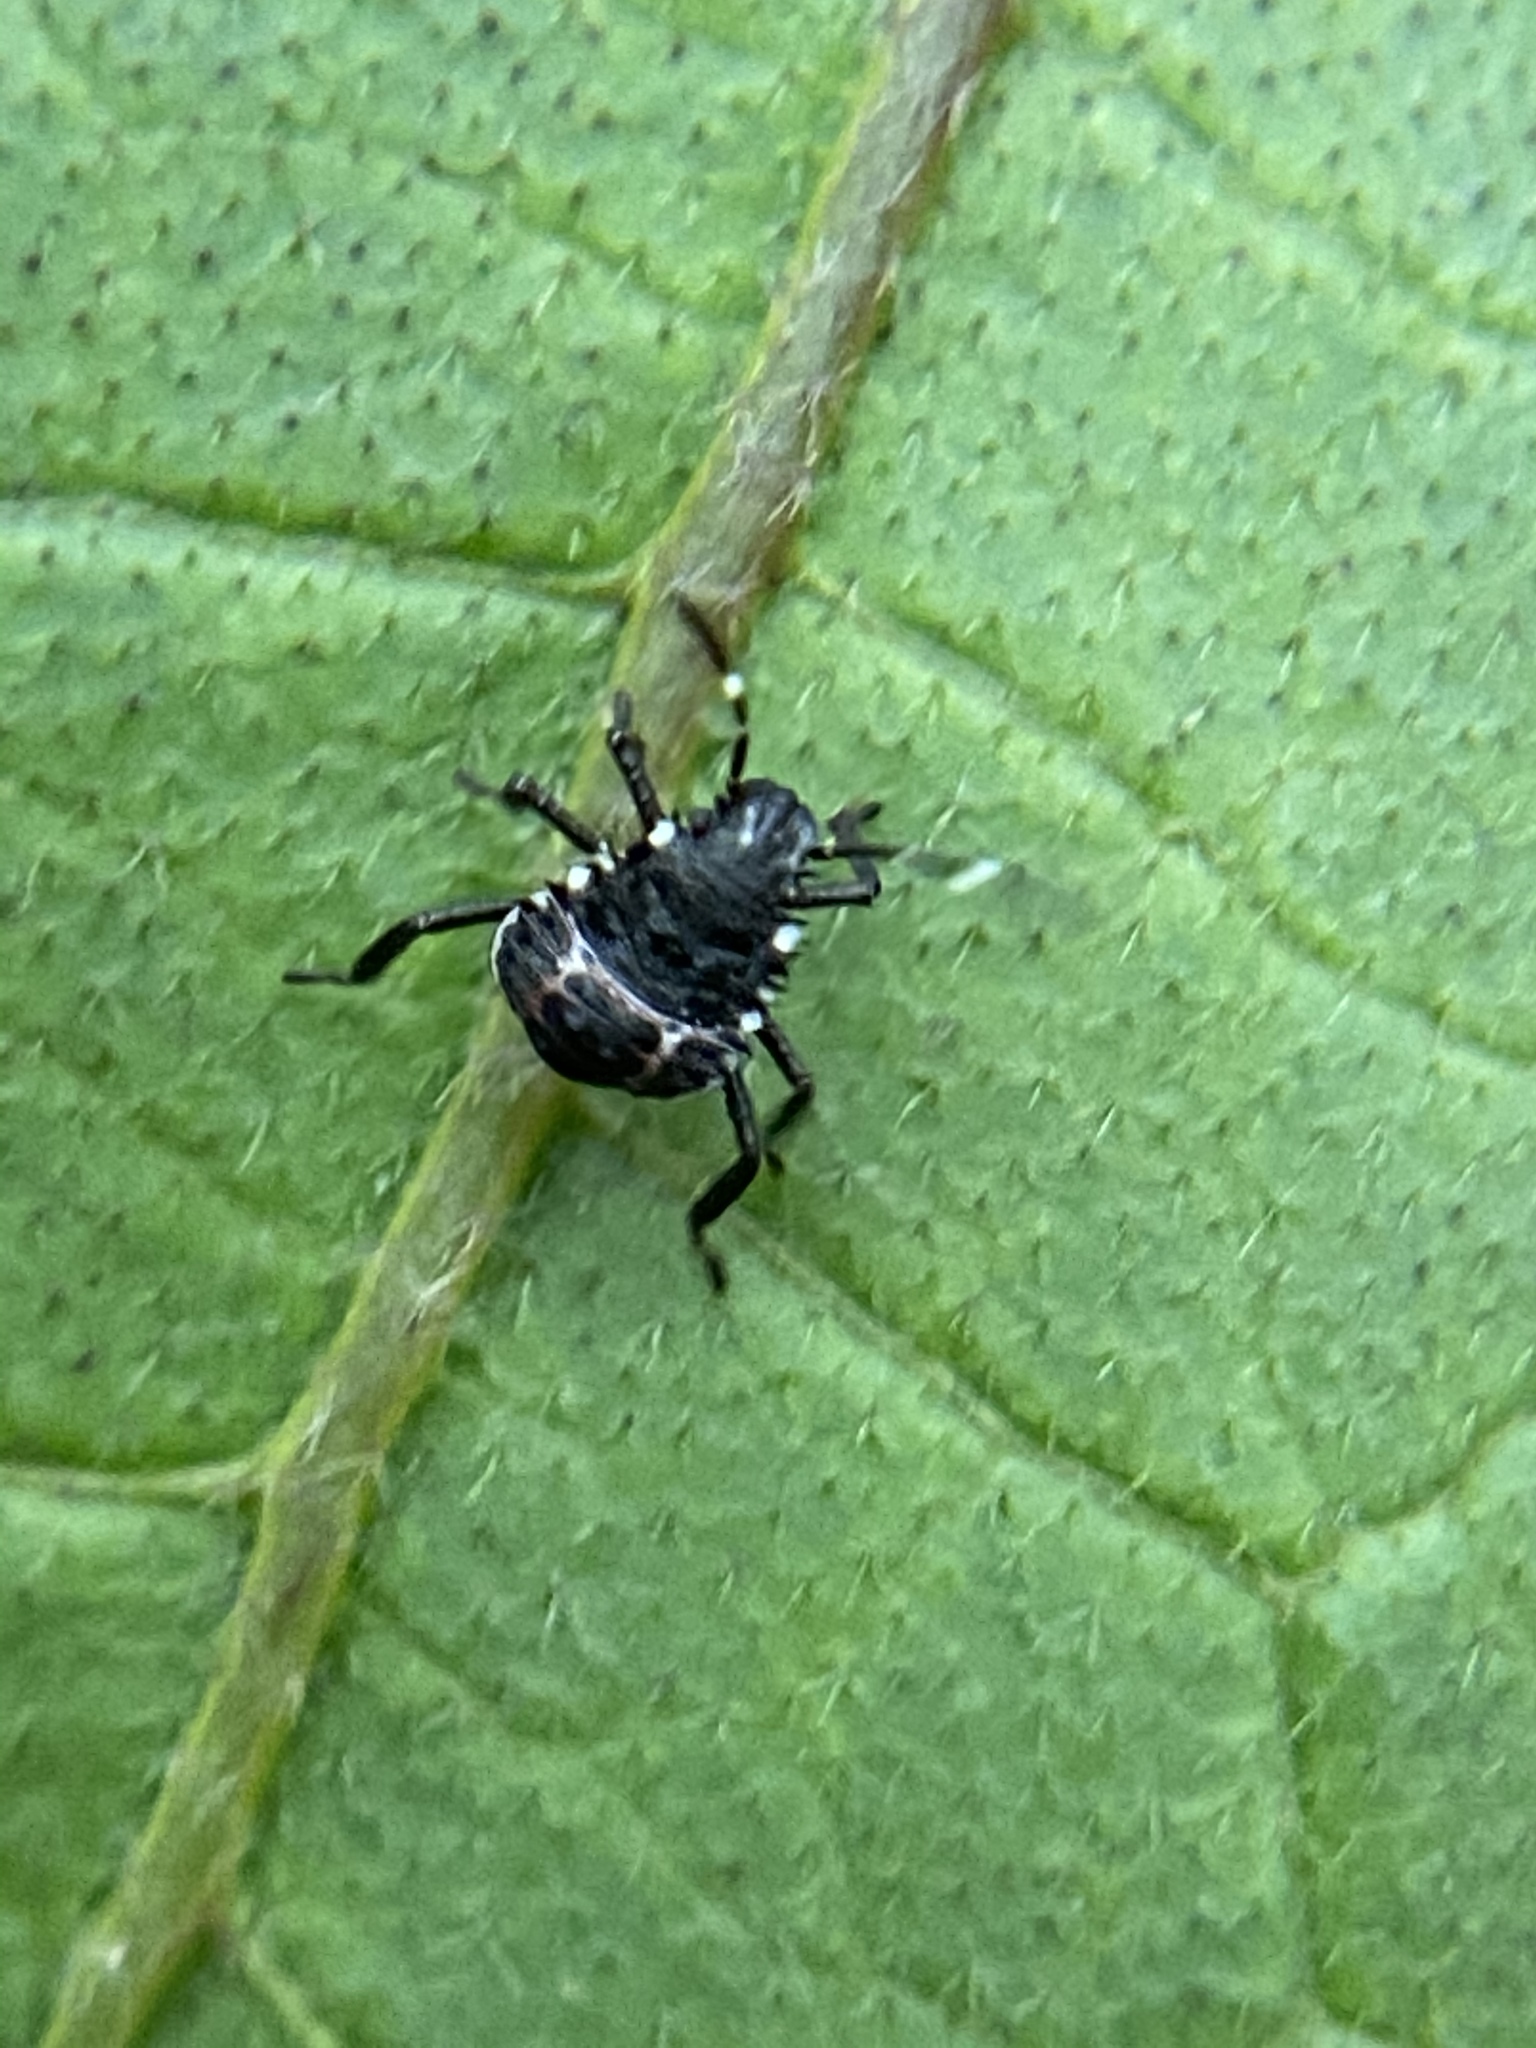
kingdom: Animalia
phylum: Arthropoda
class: Insecta
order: Hemiptera
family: Pentatomidae
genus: Halyomorpha
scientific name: Halyomorpha halys
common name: Brown marmorated stink bug
